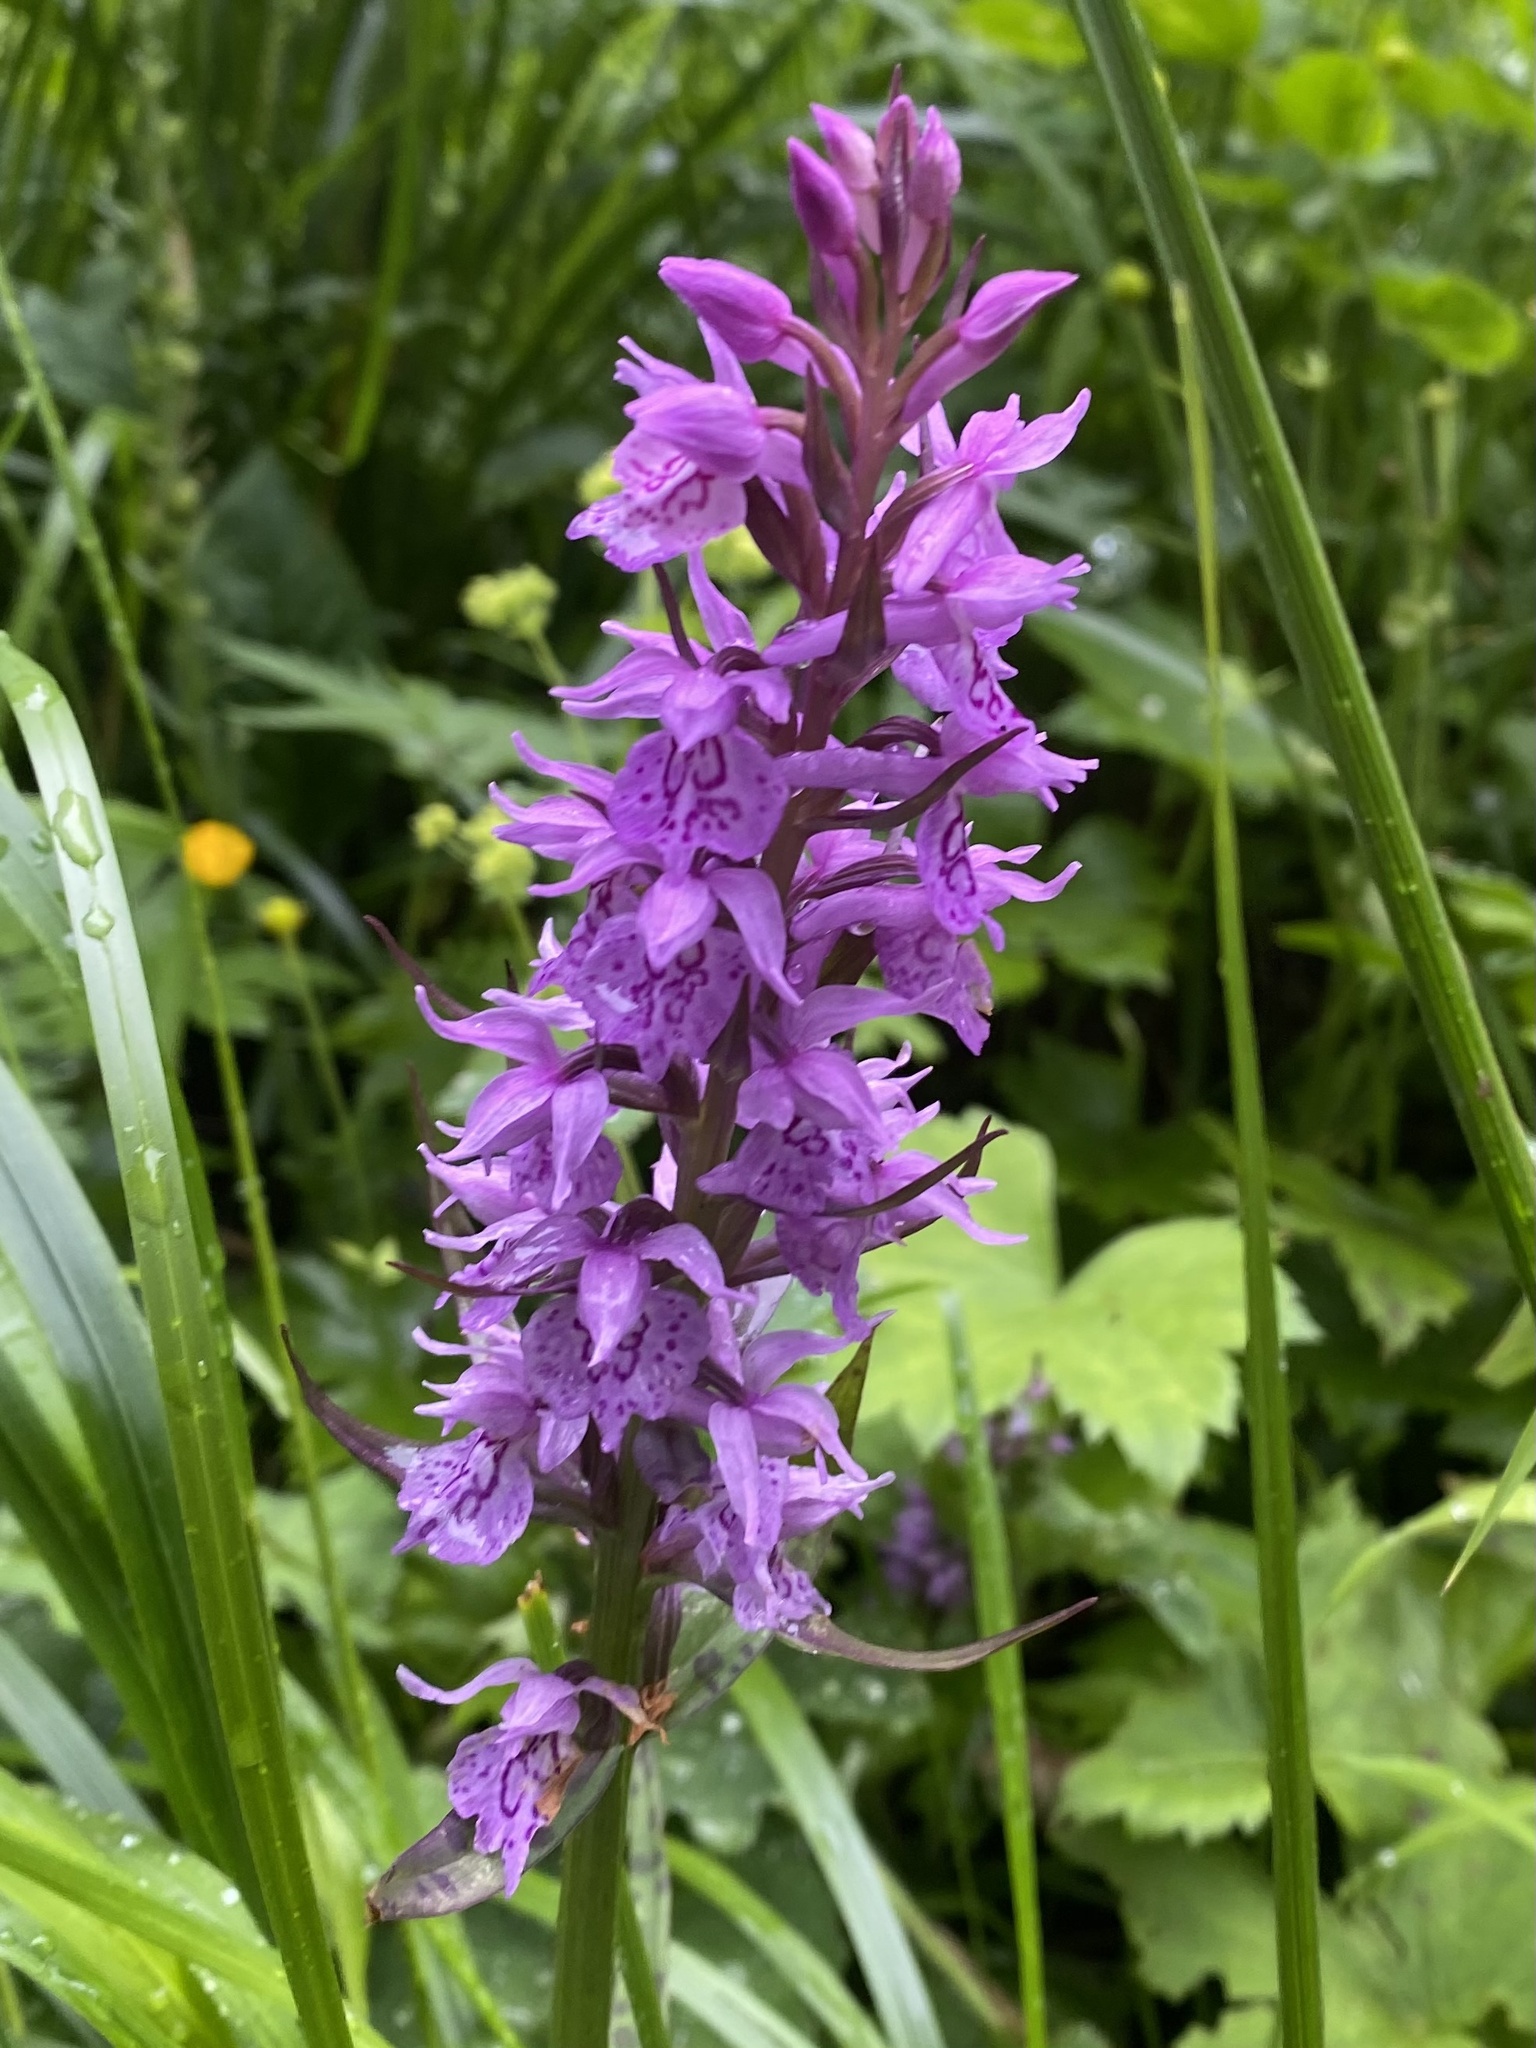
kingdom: Plantae
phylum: Tracheophyta
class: Liliopsida
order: Asparagales
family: Orchidaceae
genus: Dactylorhiza
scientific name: Dactylorhiza urvilleana
